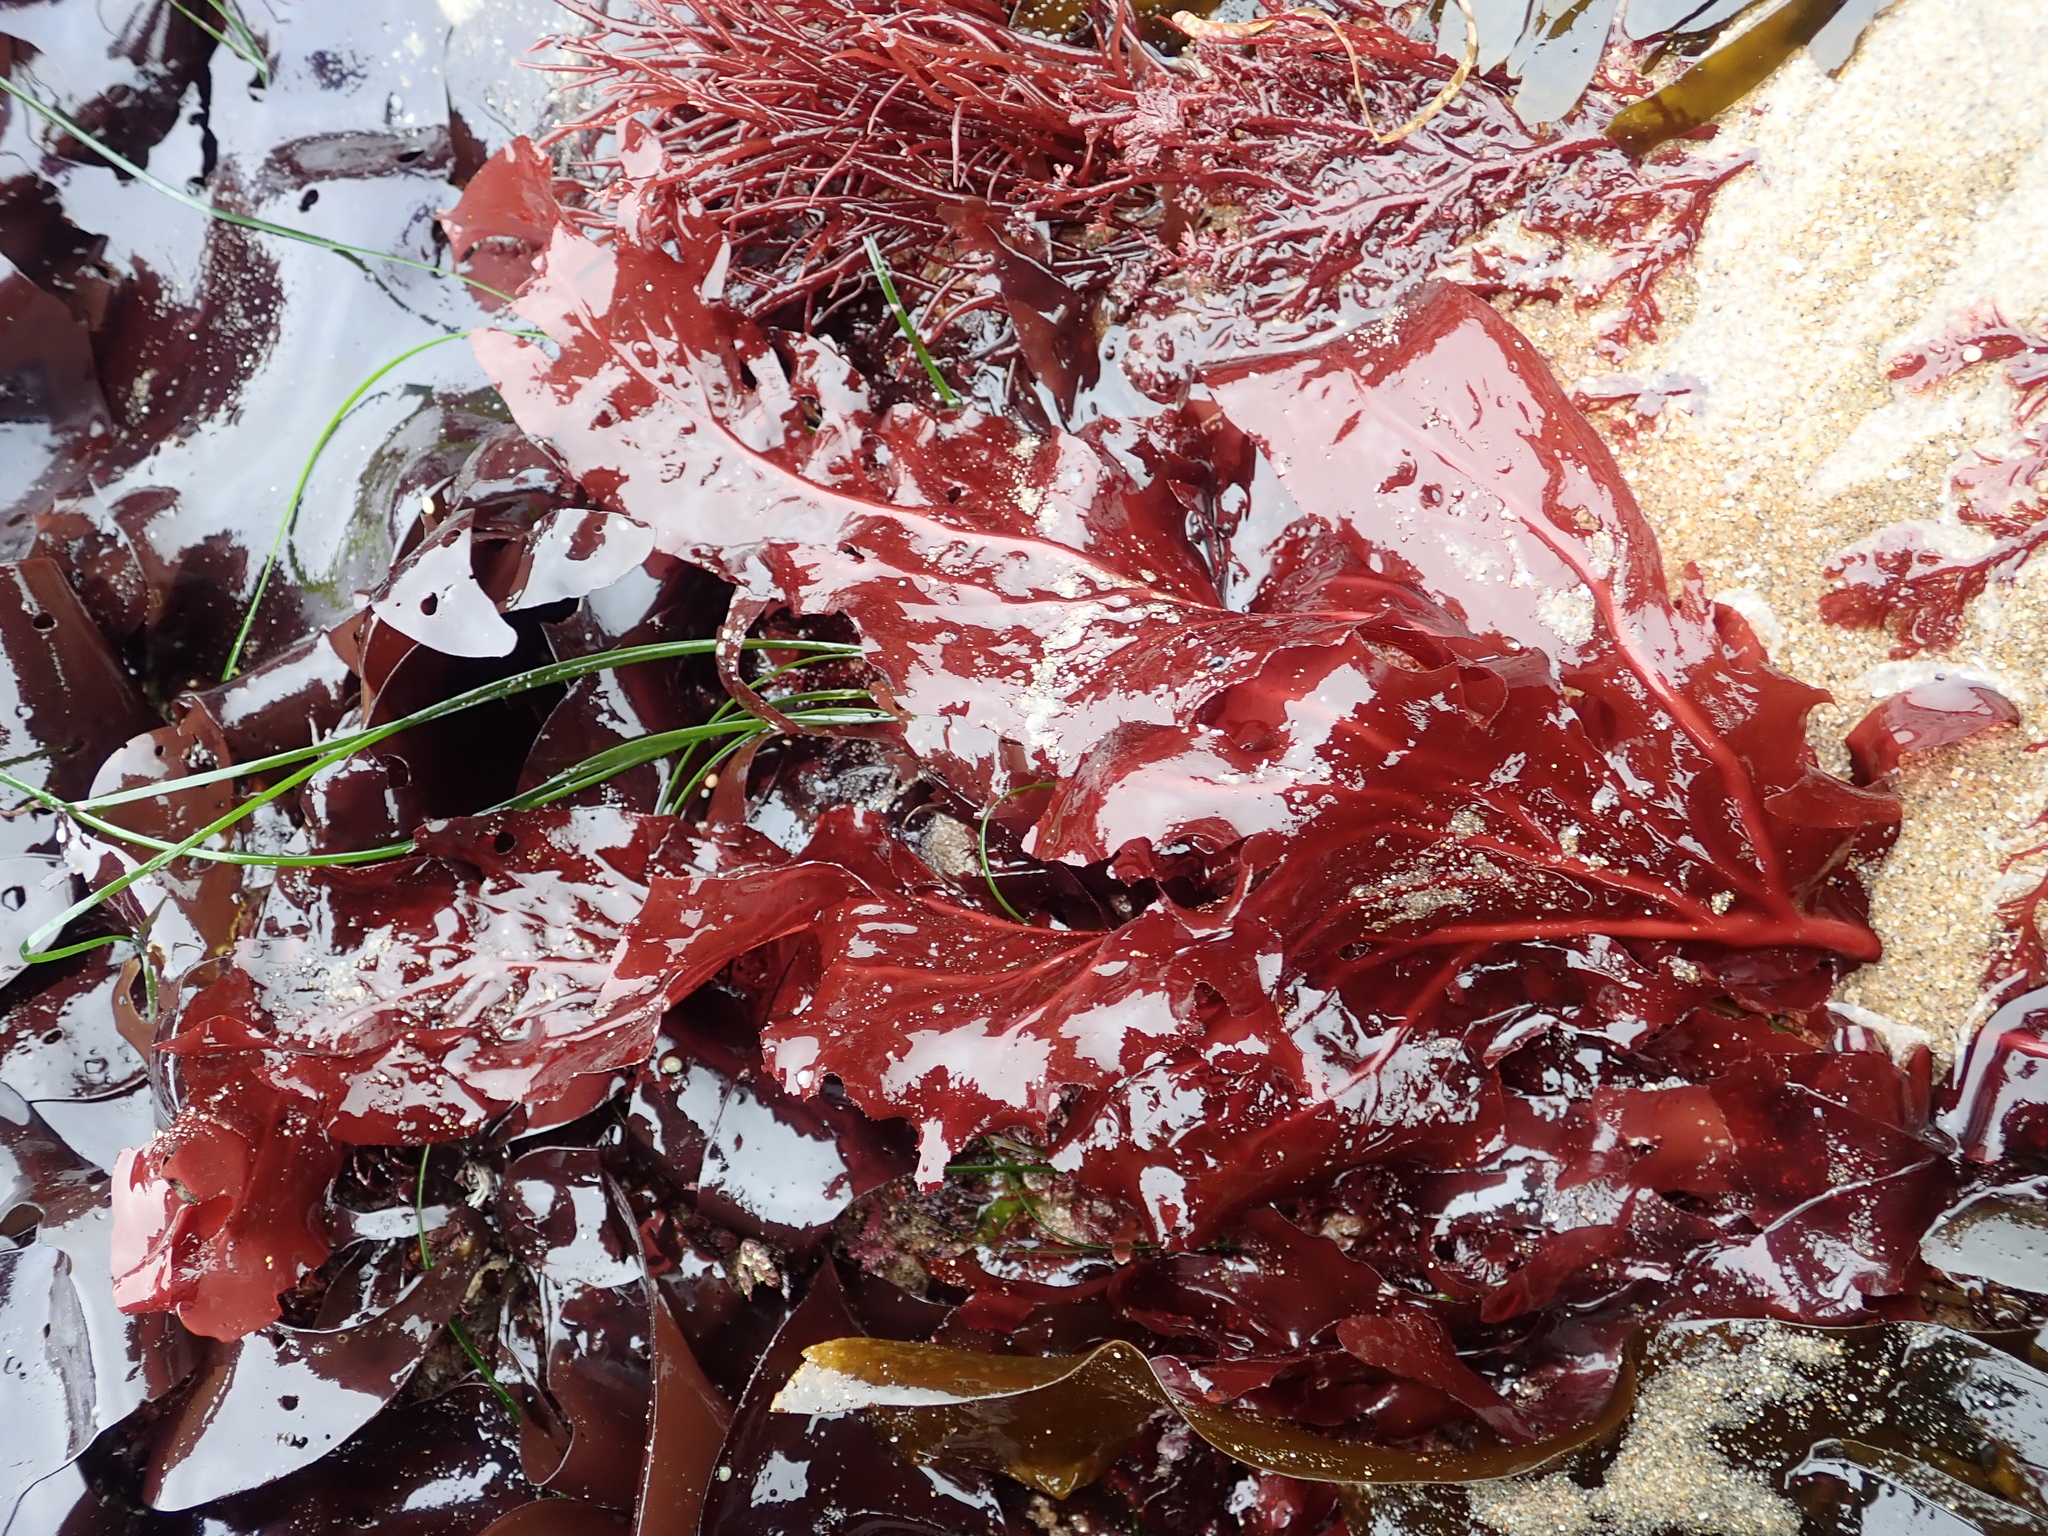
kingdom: Plantae
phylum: Rhodophyta
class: Florideophyceae
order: Gigartinales
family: Kallymeniaceae
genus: Erythrophyllum
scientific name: Erythrophyllum delesserioides
